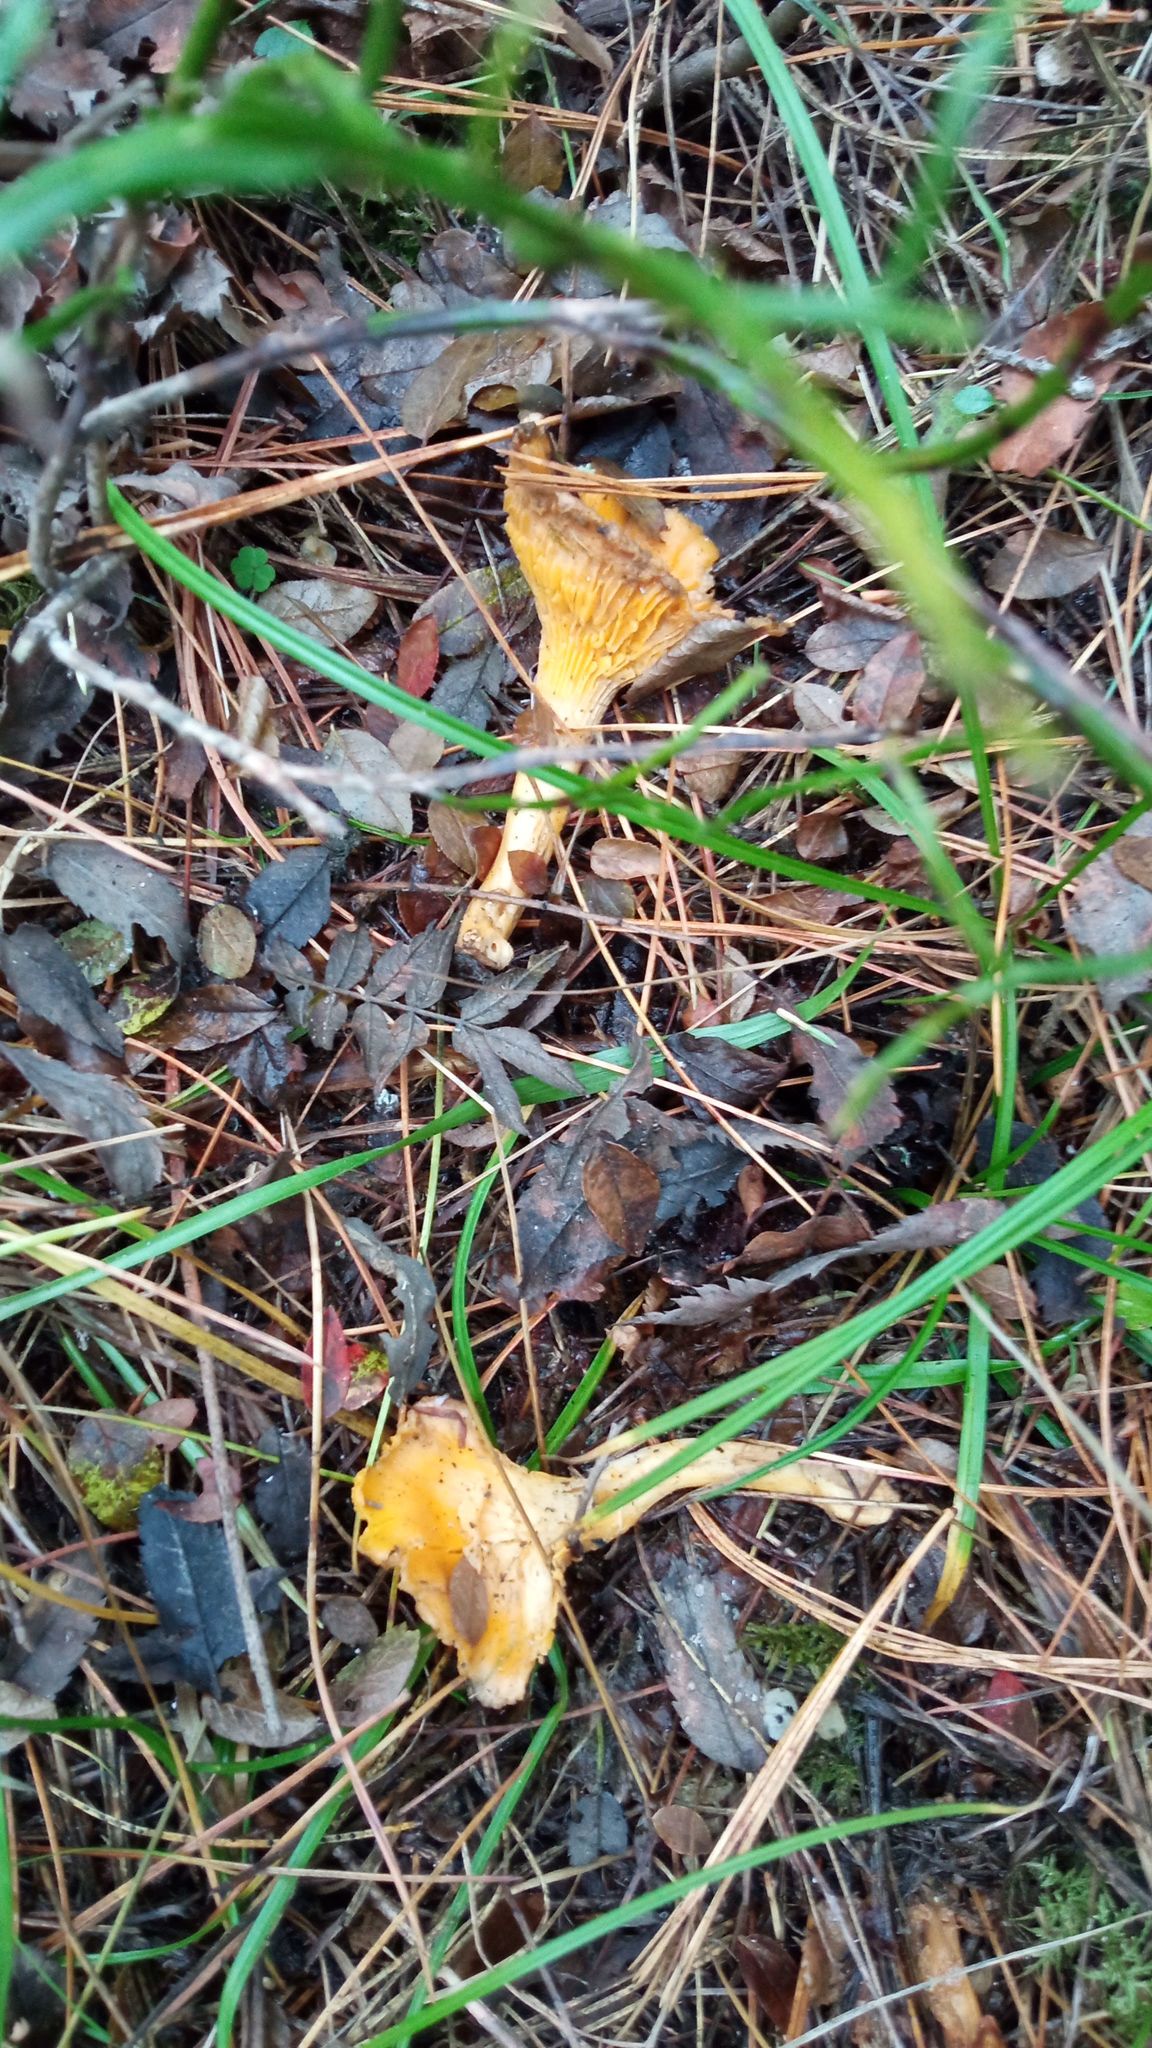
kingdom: Fungi
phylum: Basidiomycota
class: Agaricomycetes
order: Cantharellales
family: Hydnaceae
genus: Cantharellus
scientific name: Cantharellus cibarius
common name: Chanterelle
